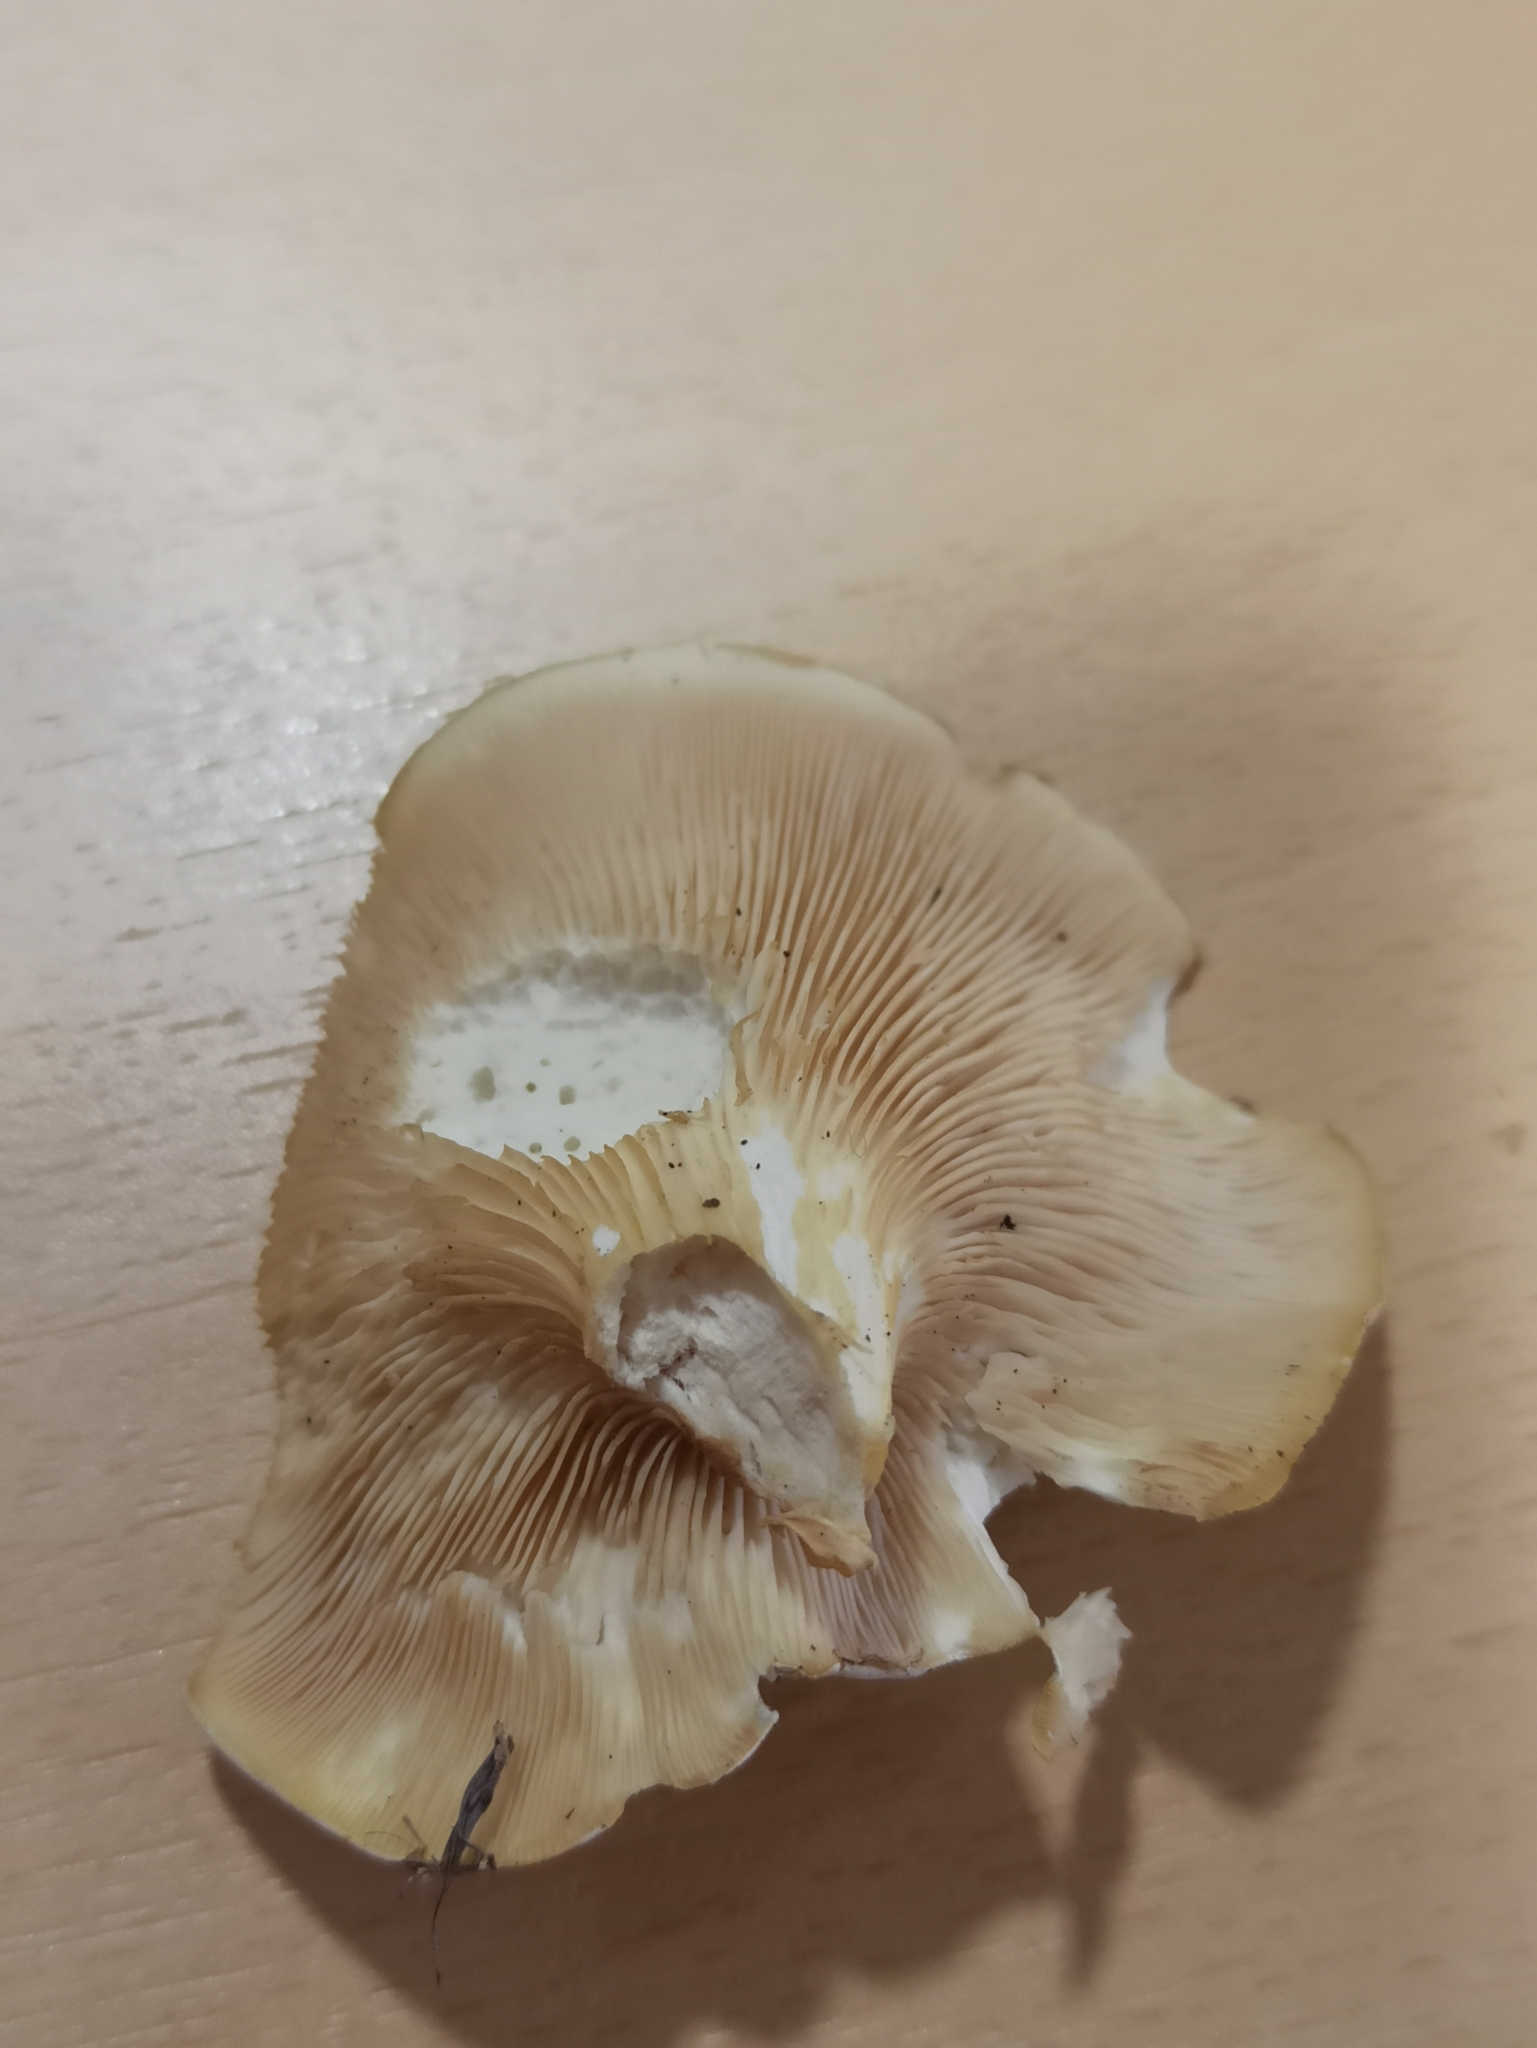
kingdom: Fungi
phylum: Basidiomycota
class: Agaricomycetes
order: Agaricales
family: Entolomataceae
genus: Clitopilus
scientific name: Clitopilus prunulus
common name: The miller
